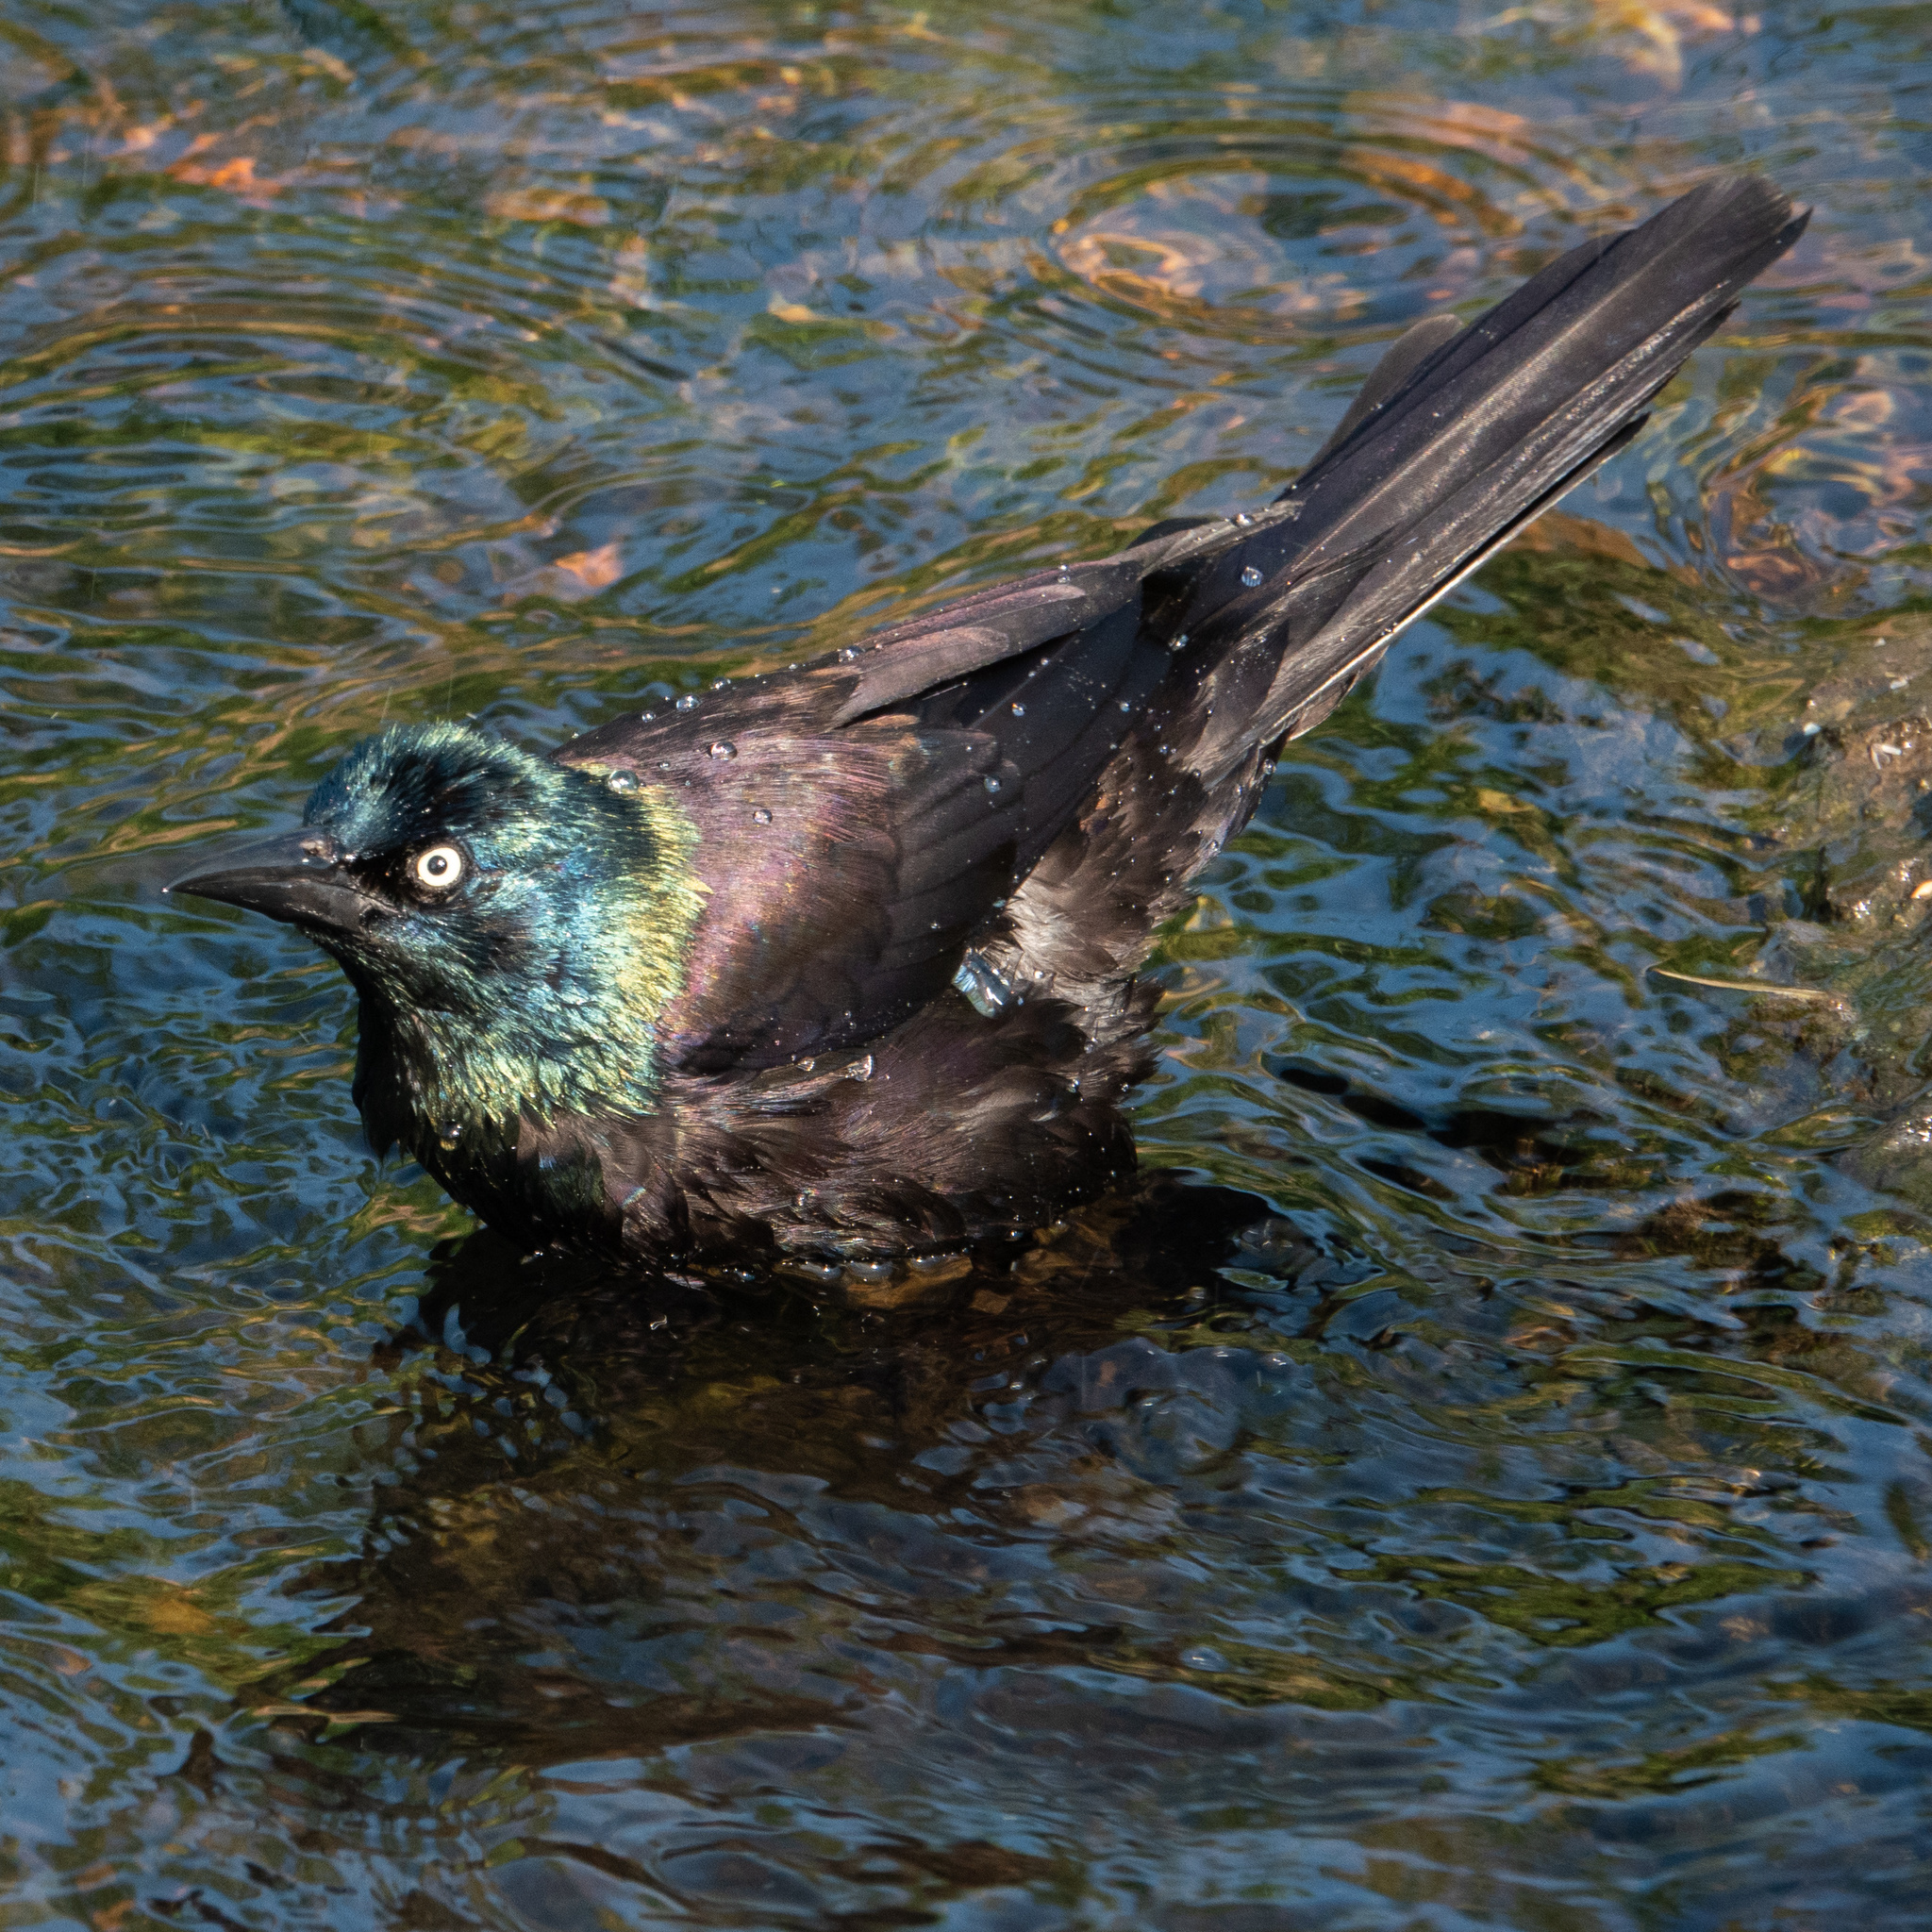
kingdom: Animalia
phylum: Chordata
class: Aves
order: Passeriformes
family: Icteridae
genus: Quiscalus
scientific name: Quiscalus quiscula
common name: Common grackle
